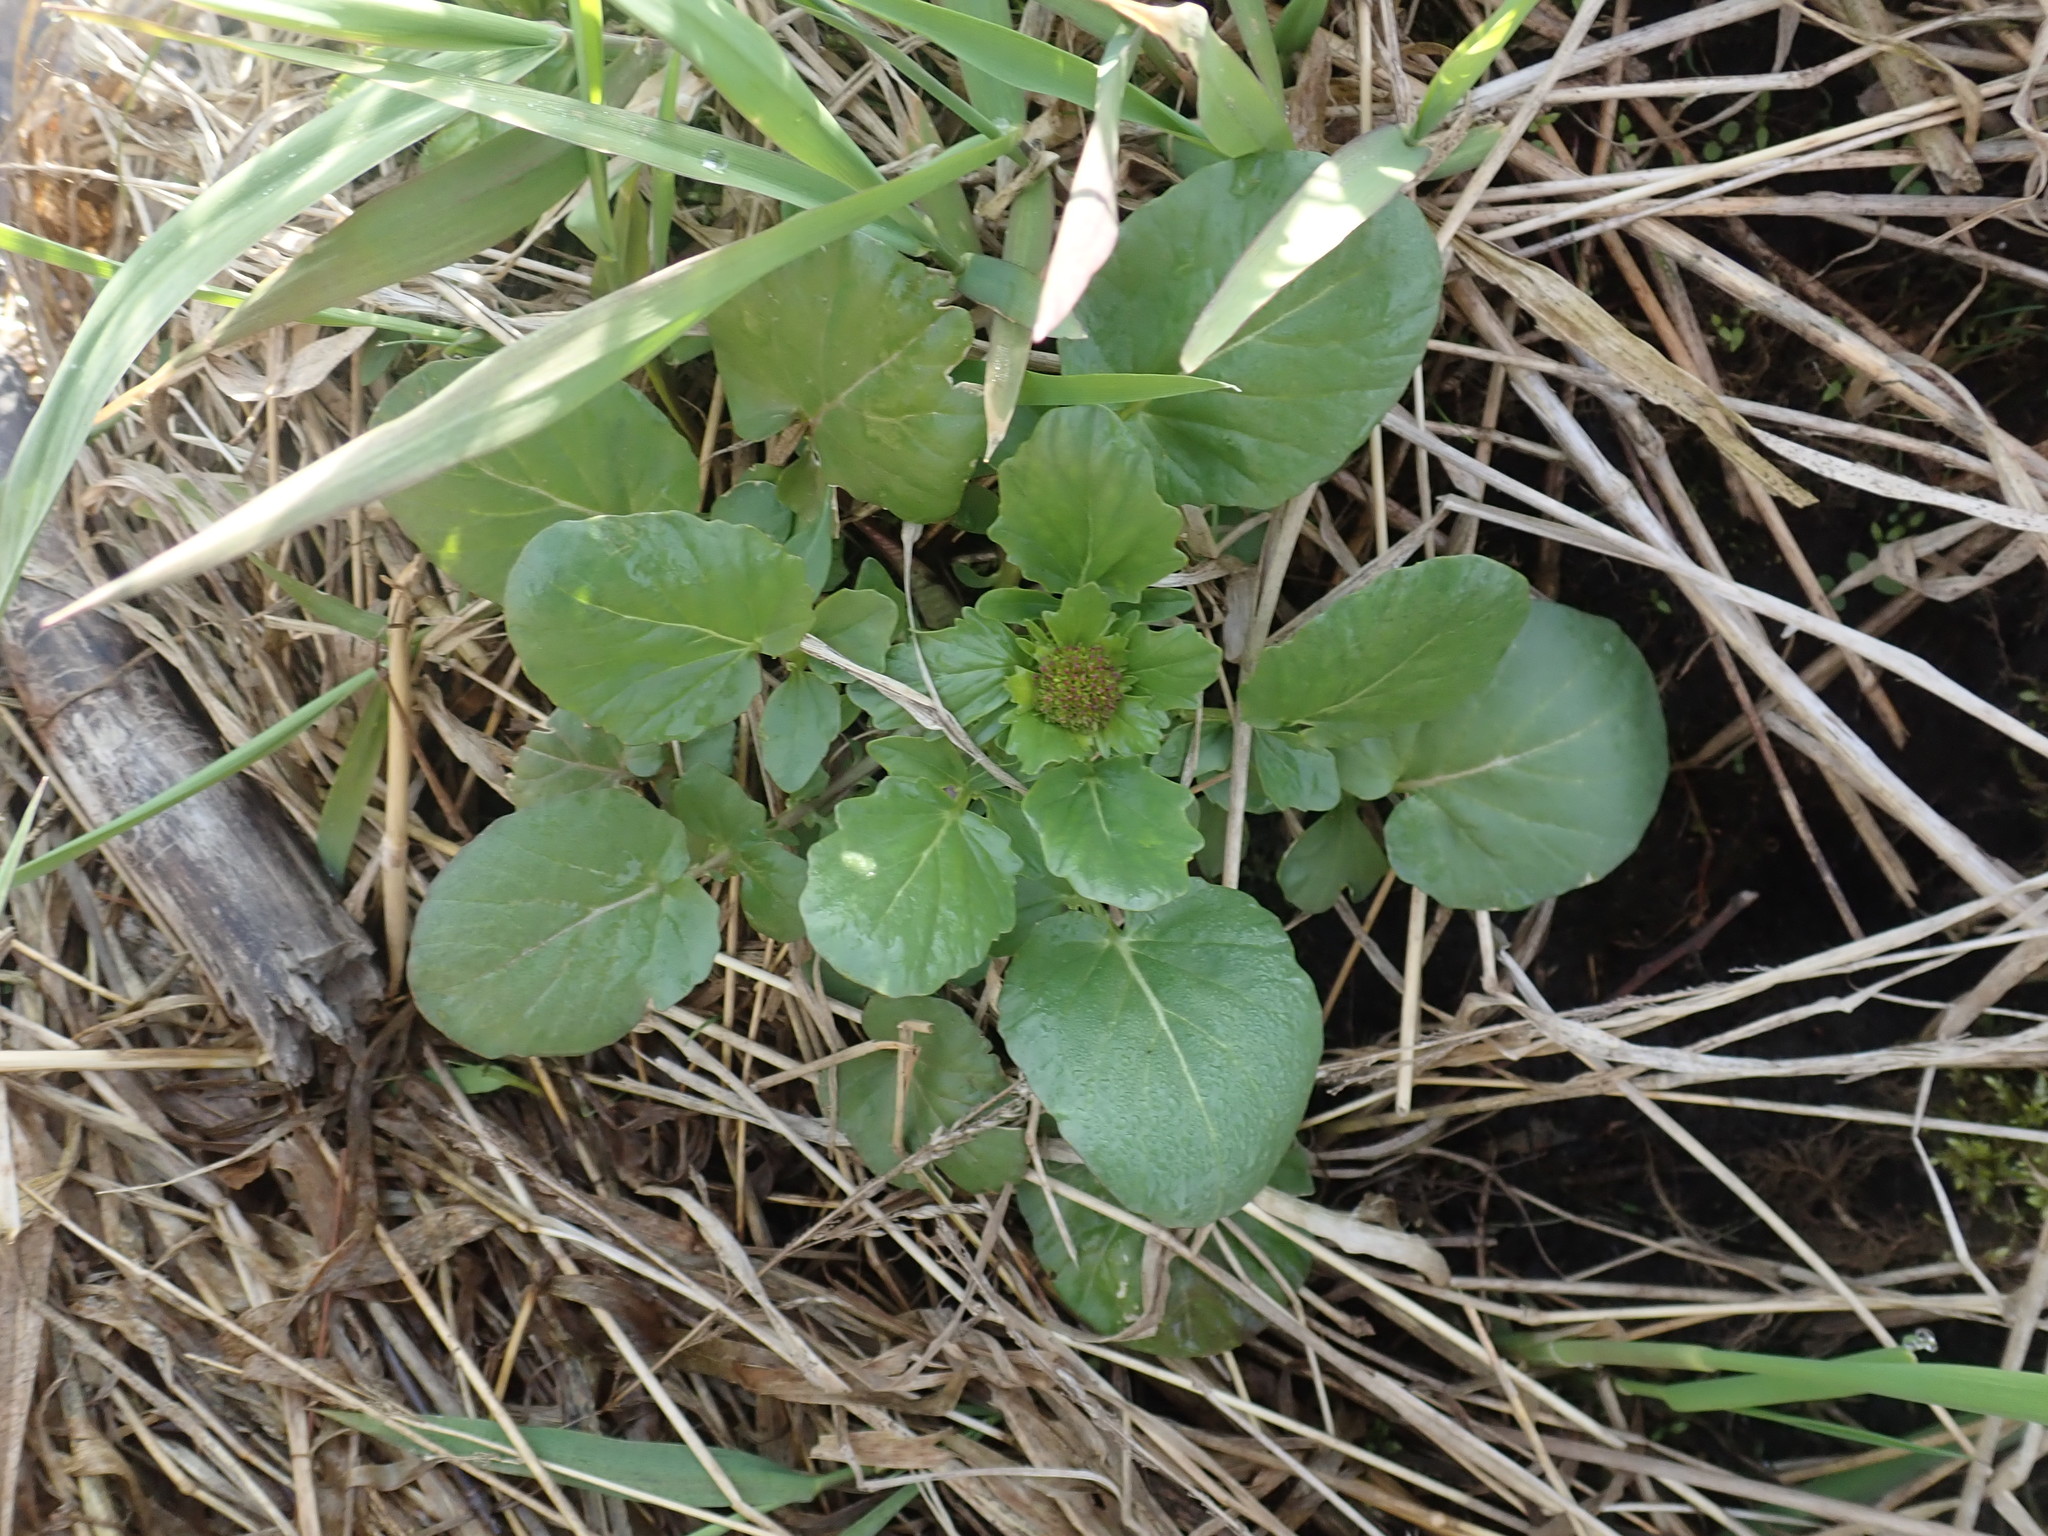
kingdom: Plantae
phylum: Tracheophyta
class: Magnoliopsida
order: Brassicales
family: Brassicaceae
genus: Barbarea
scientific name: Barbarea vulgaris
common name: Cressy-greens
